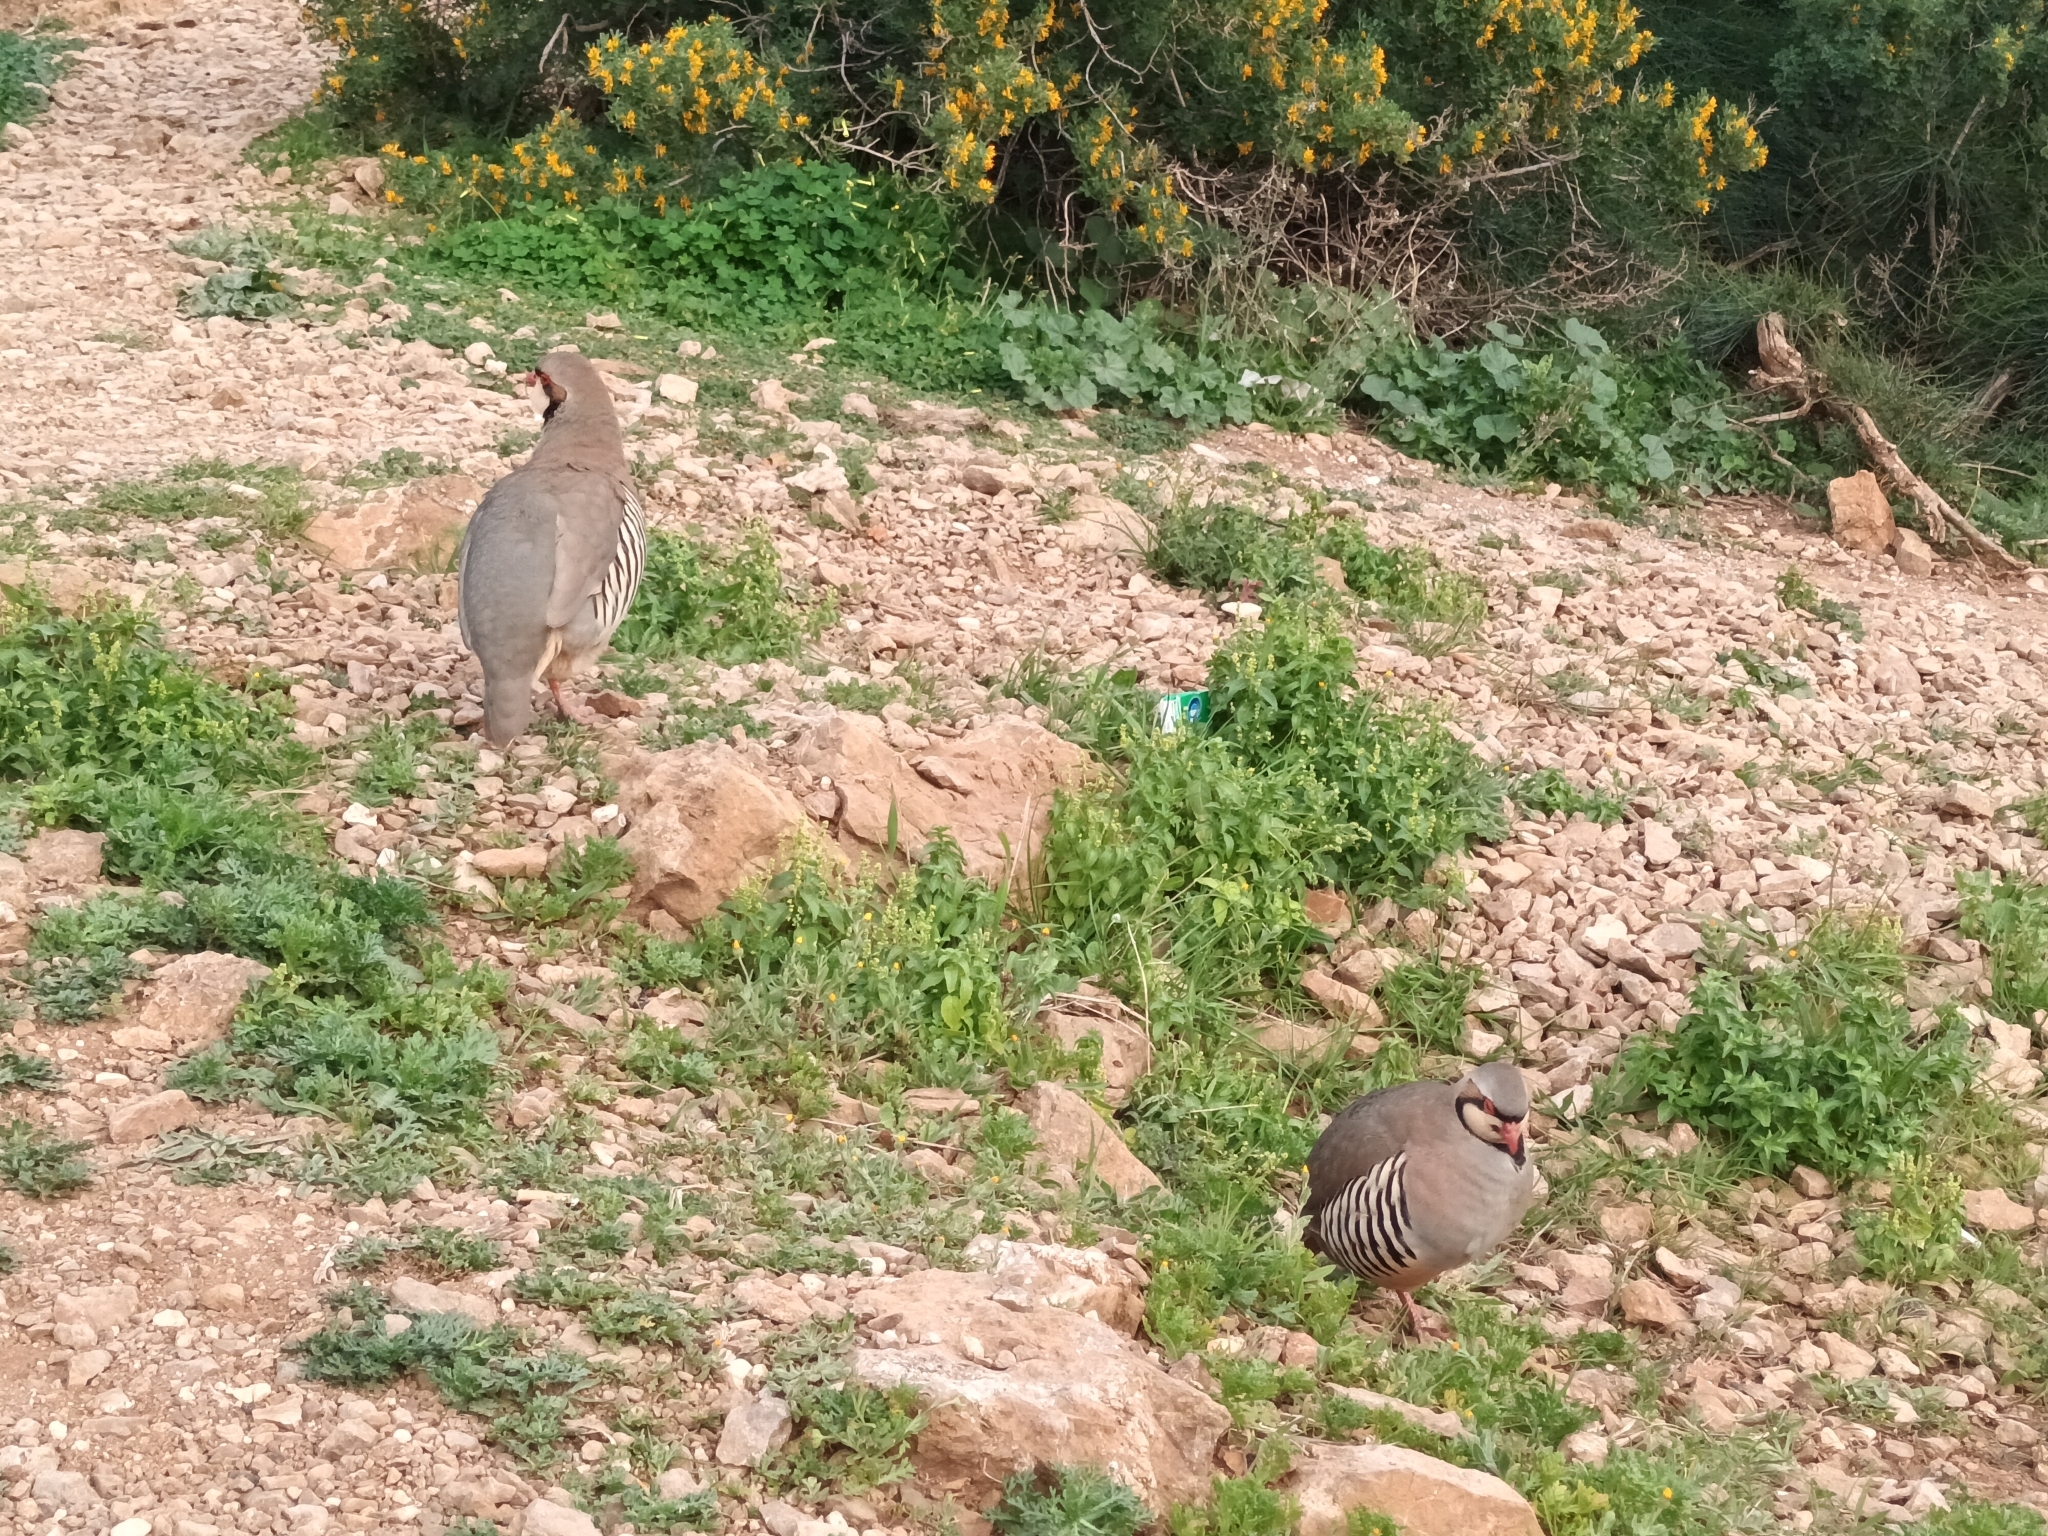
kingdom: Animalia
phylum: Chordata
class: Aves
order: Galliformes
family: Phasianidae
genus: Alectoris
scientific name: Alectoris chukar
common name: Chukar
